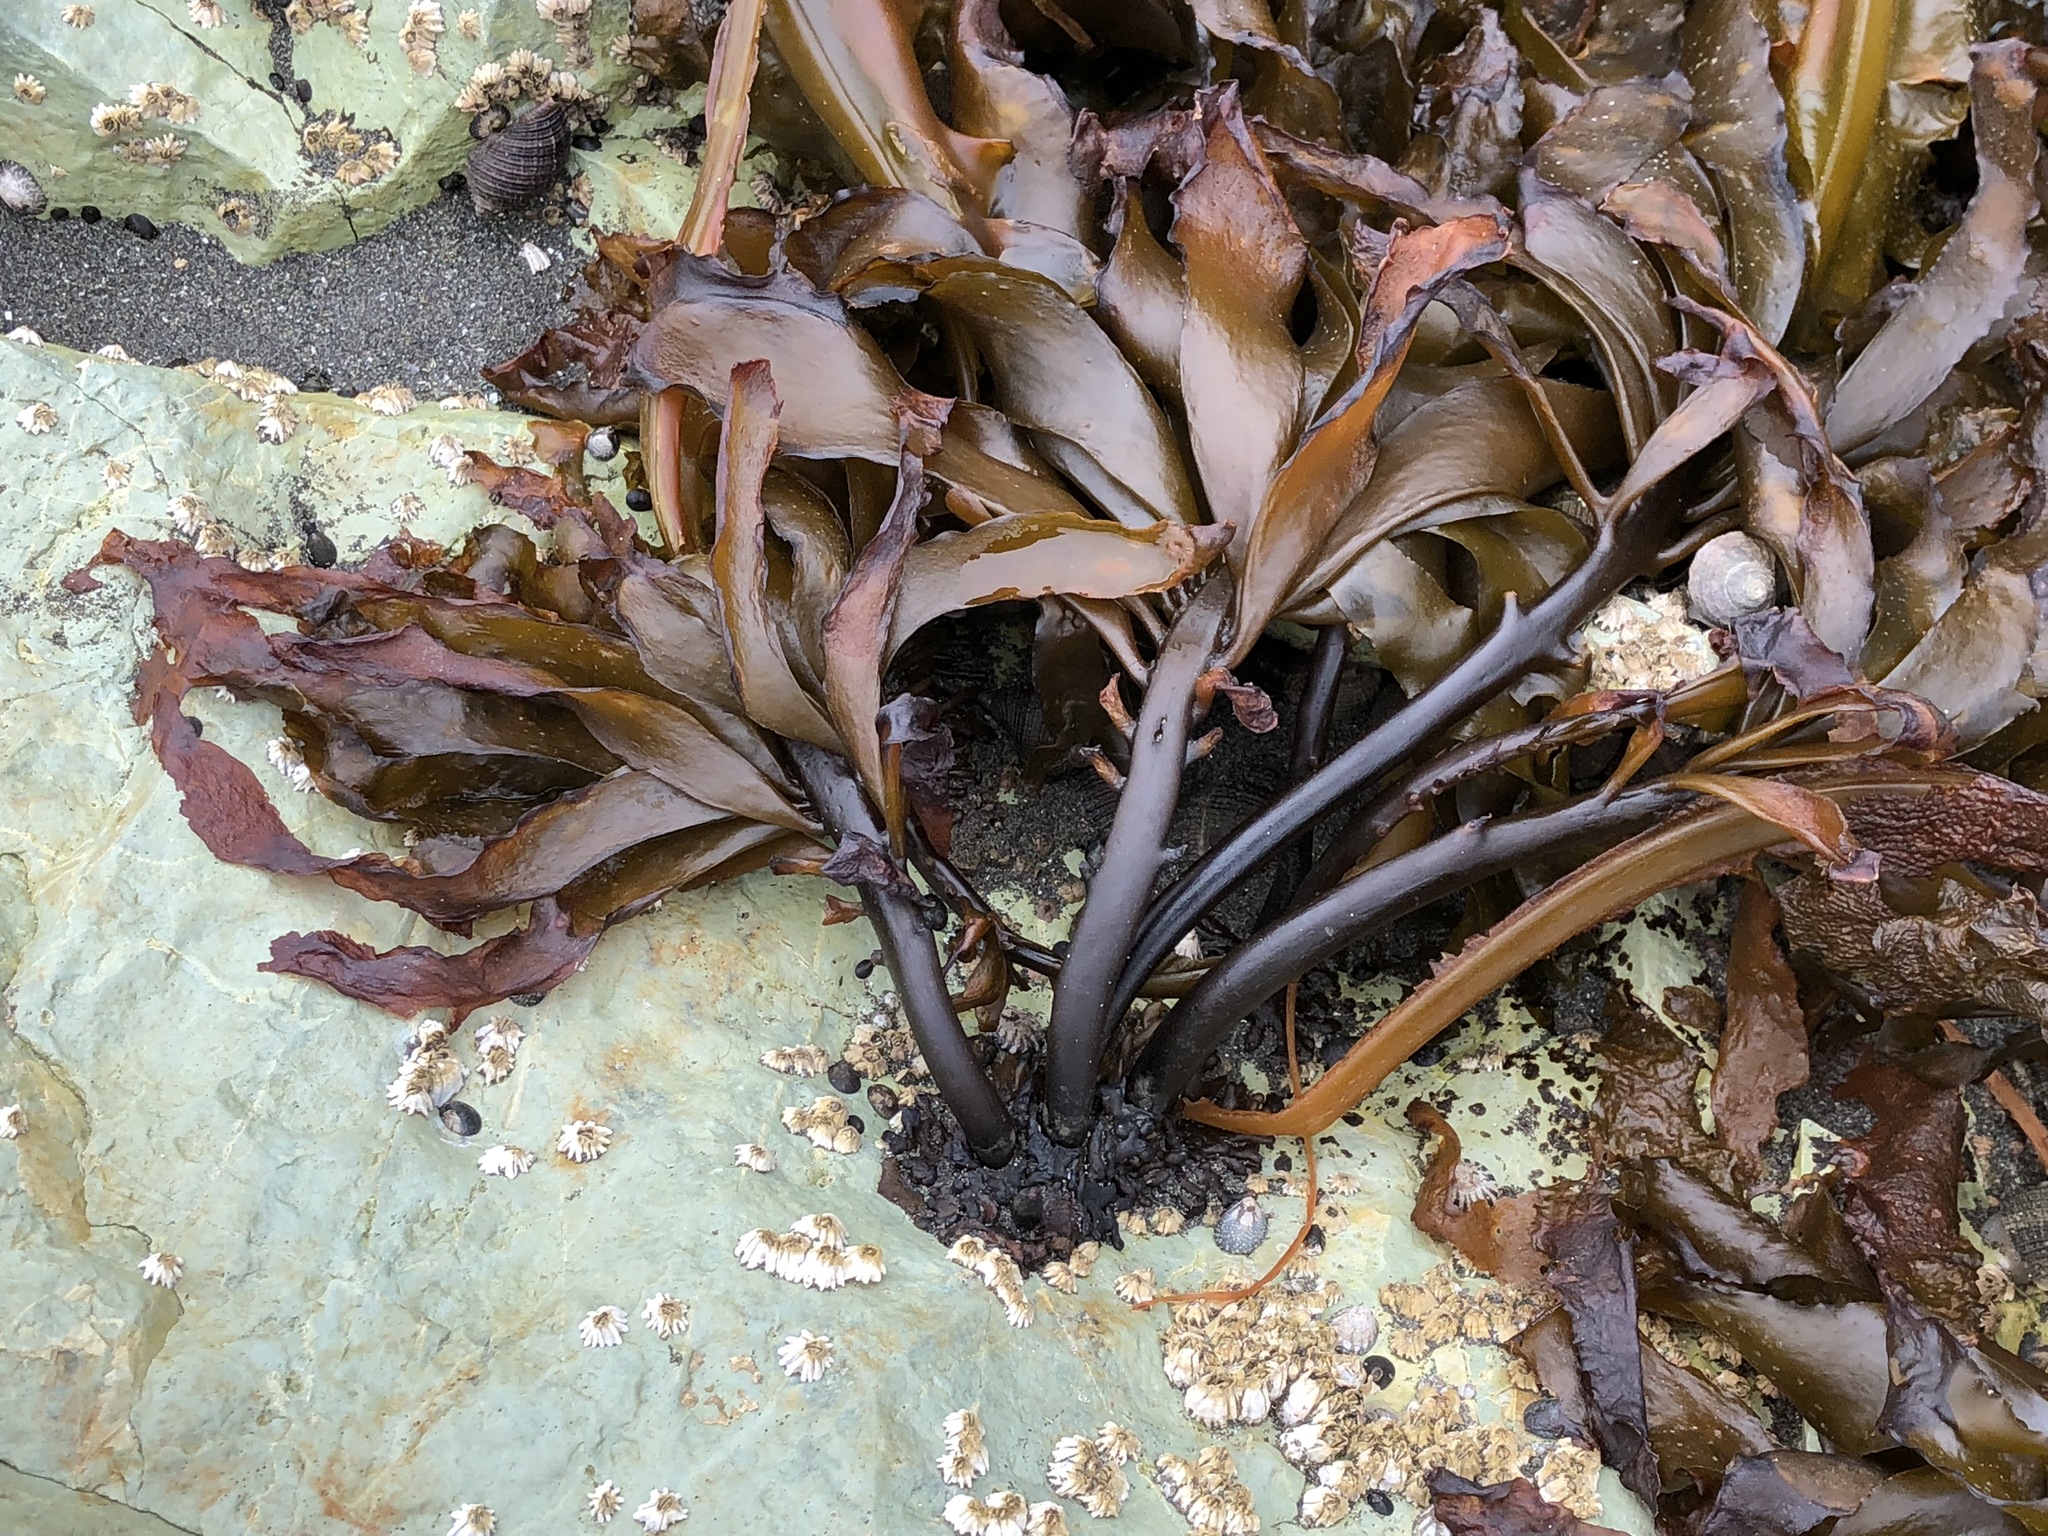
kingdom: Chromista
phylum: Ochrophyta
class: Phaeophyceae
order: Laminariales
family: Alariaceae
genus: Alaria
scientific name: Alaria marginata
